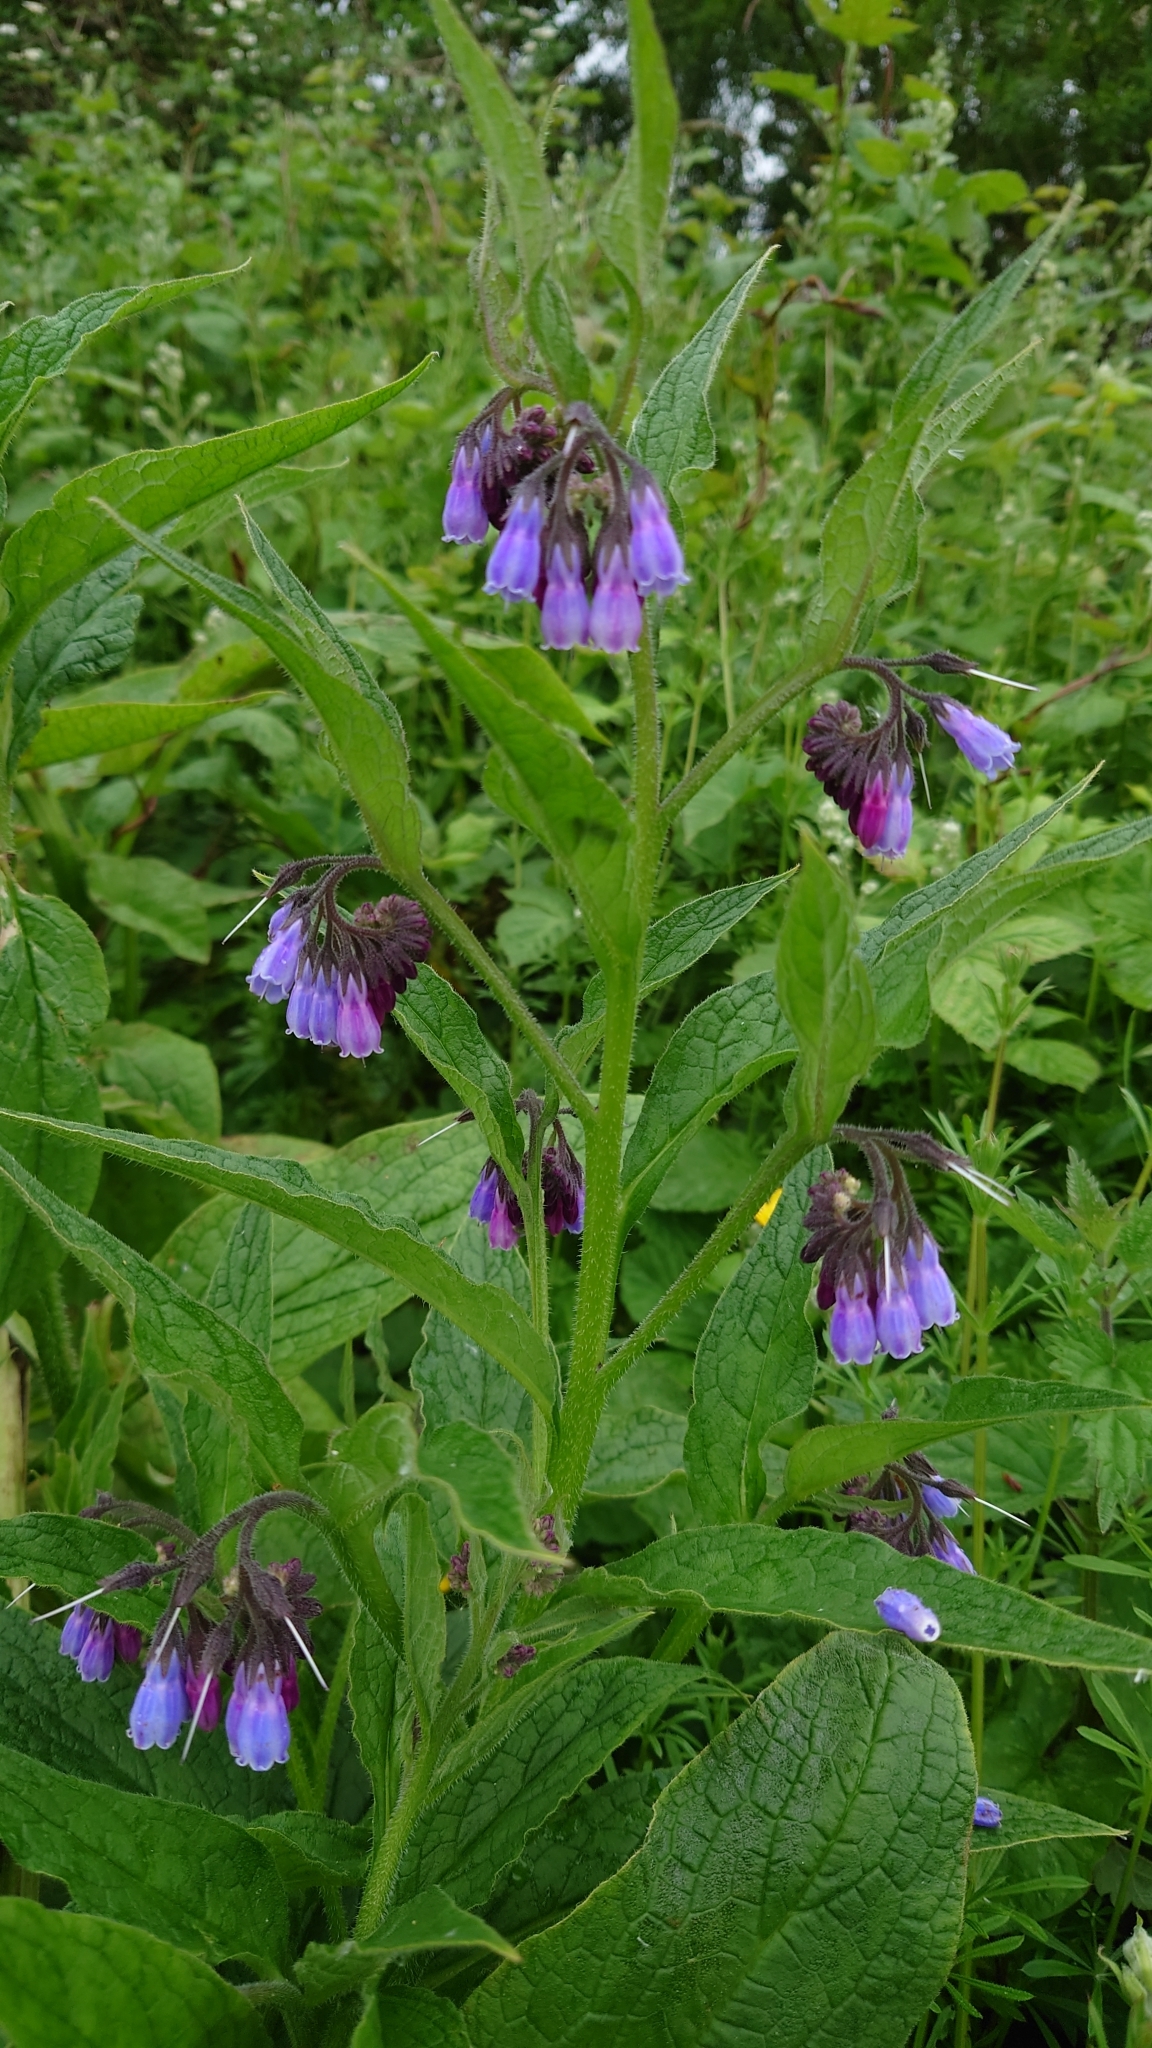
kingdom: Plantae
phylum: Tracheophyta
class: Magnoliopsida
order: Boraginales
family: Boraginaceae
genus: Symphytum
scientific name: Symphytum officinale
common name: Common comfrey
